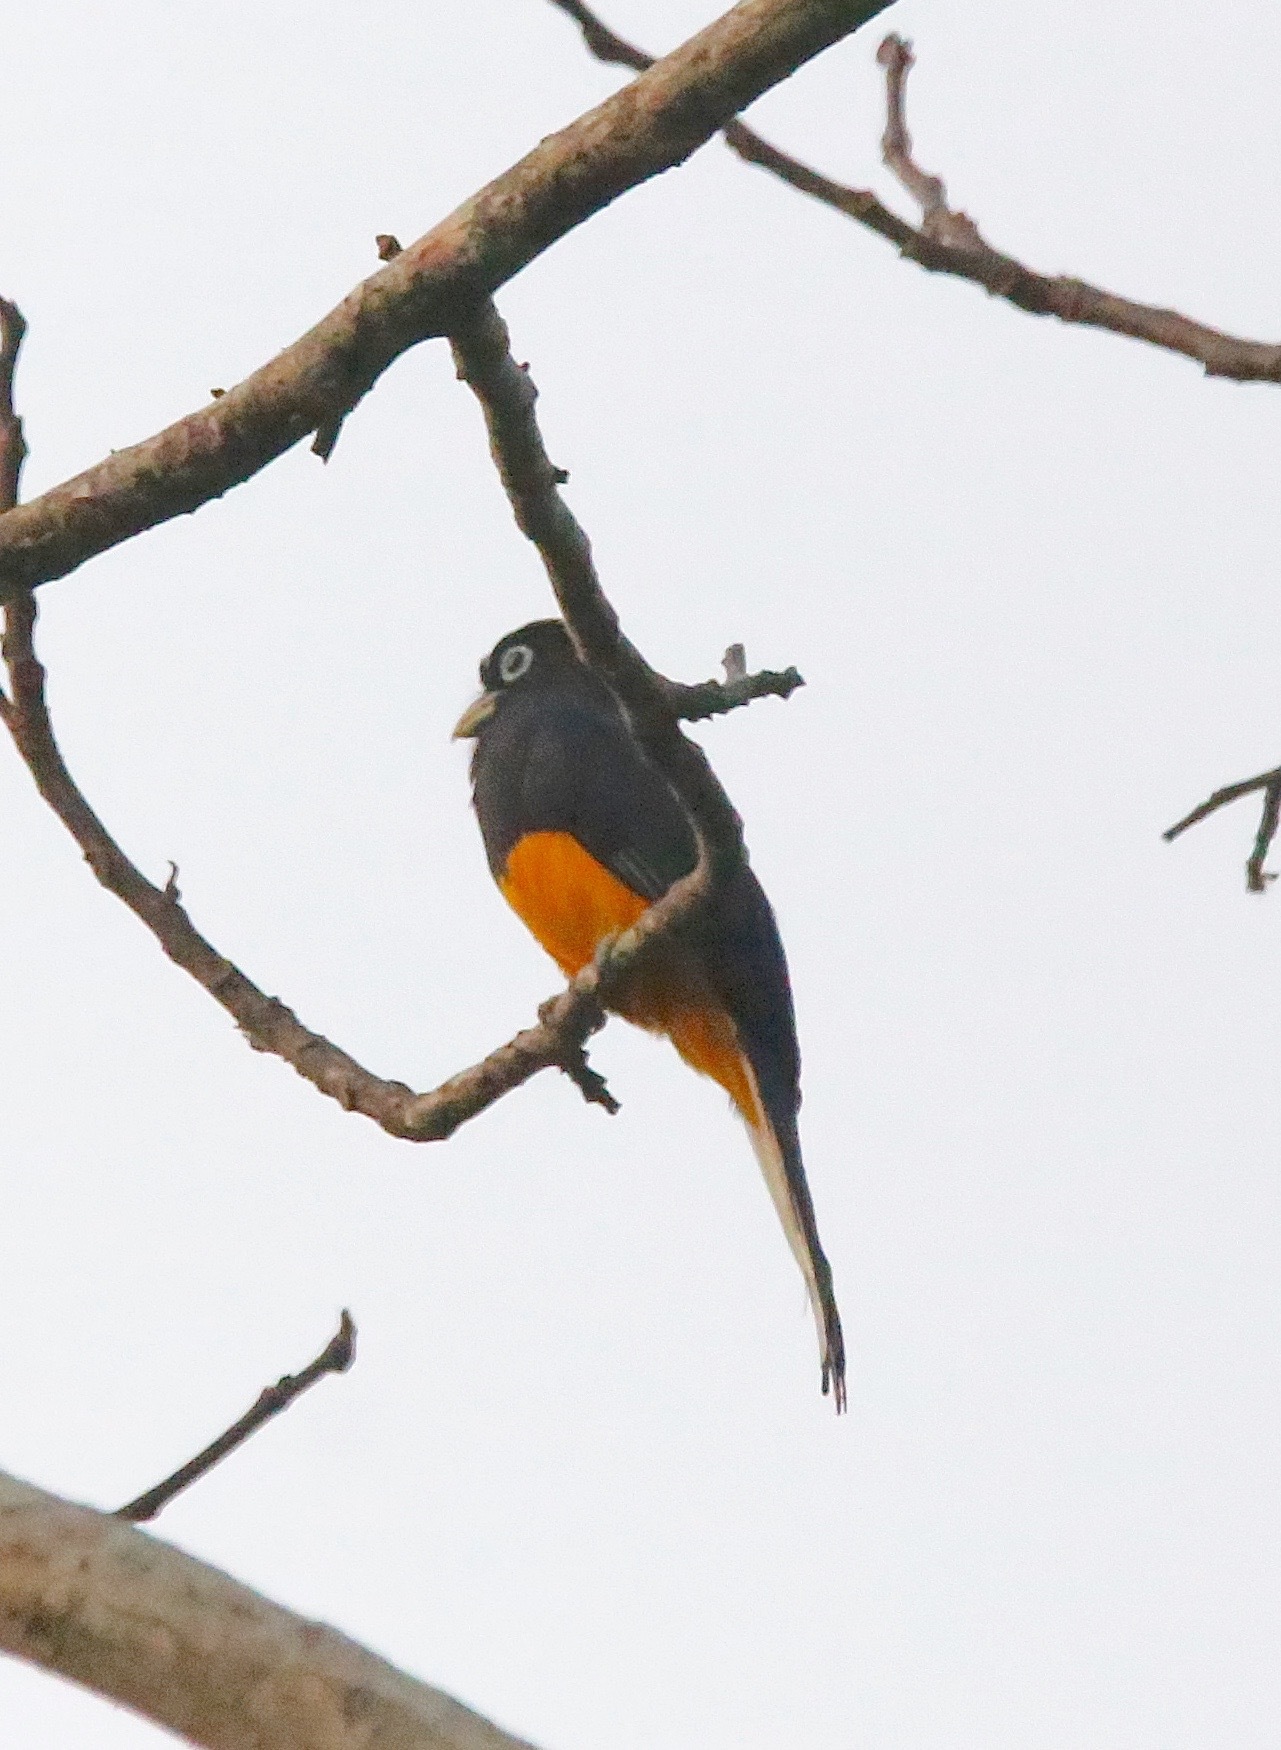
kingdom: Animalia
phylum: Chordata
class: Aves
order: Trogoniformes
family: Trogonidae
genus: Trogon
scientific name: Trogon chionurus
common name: White-tailed trogon
